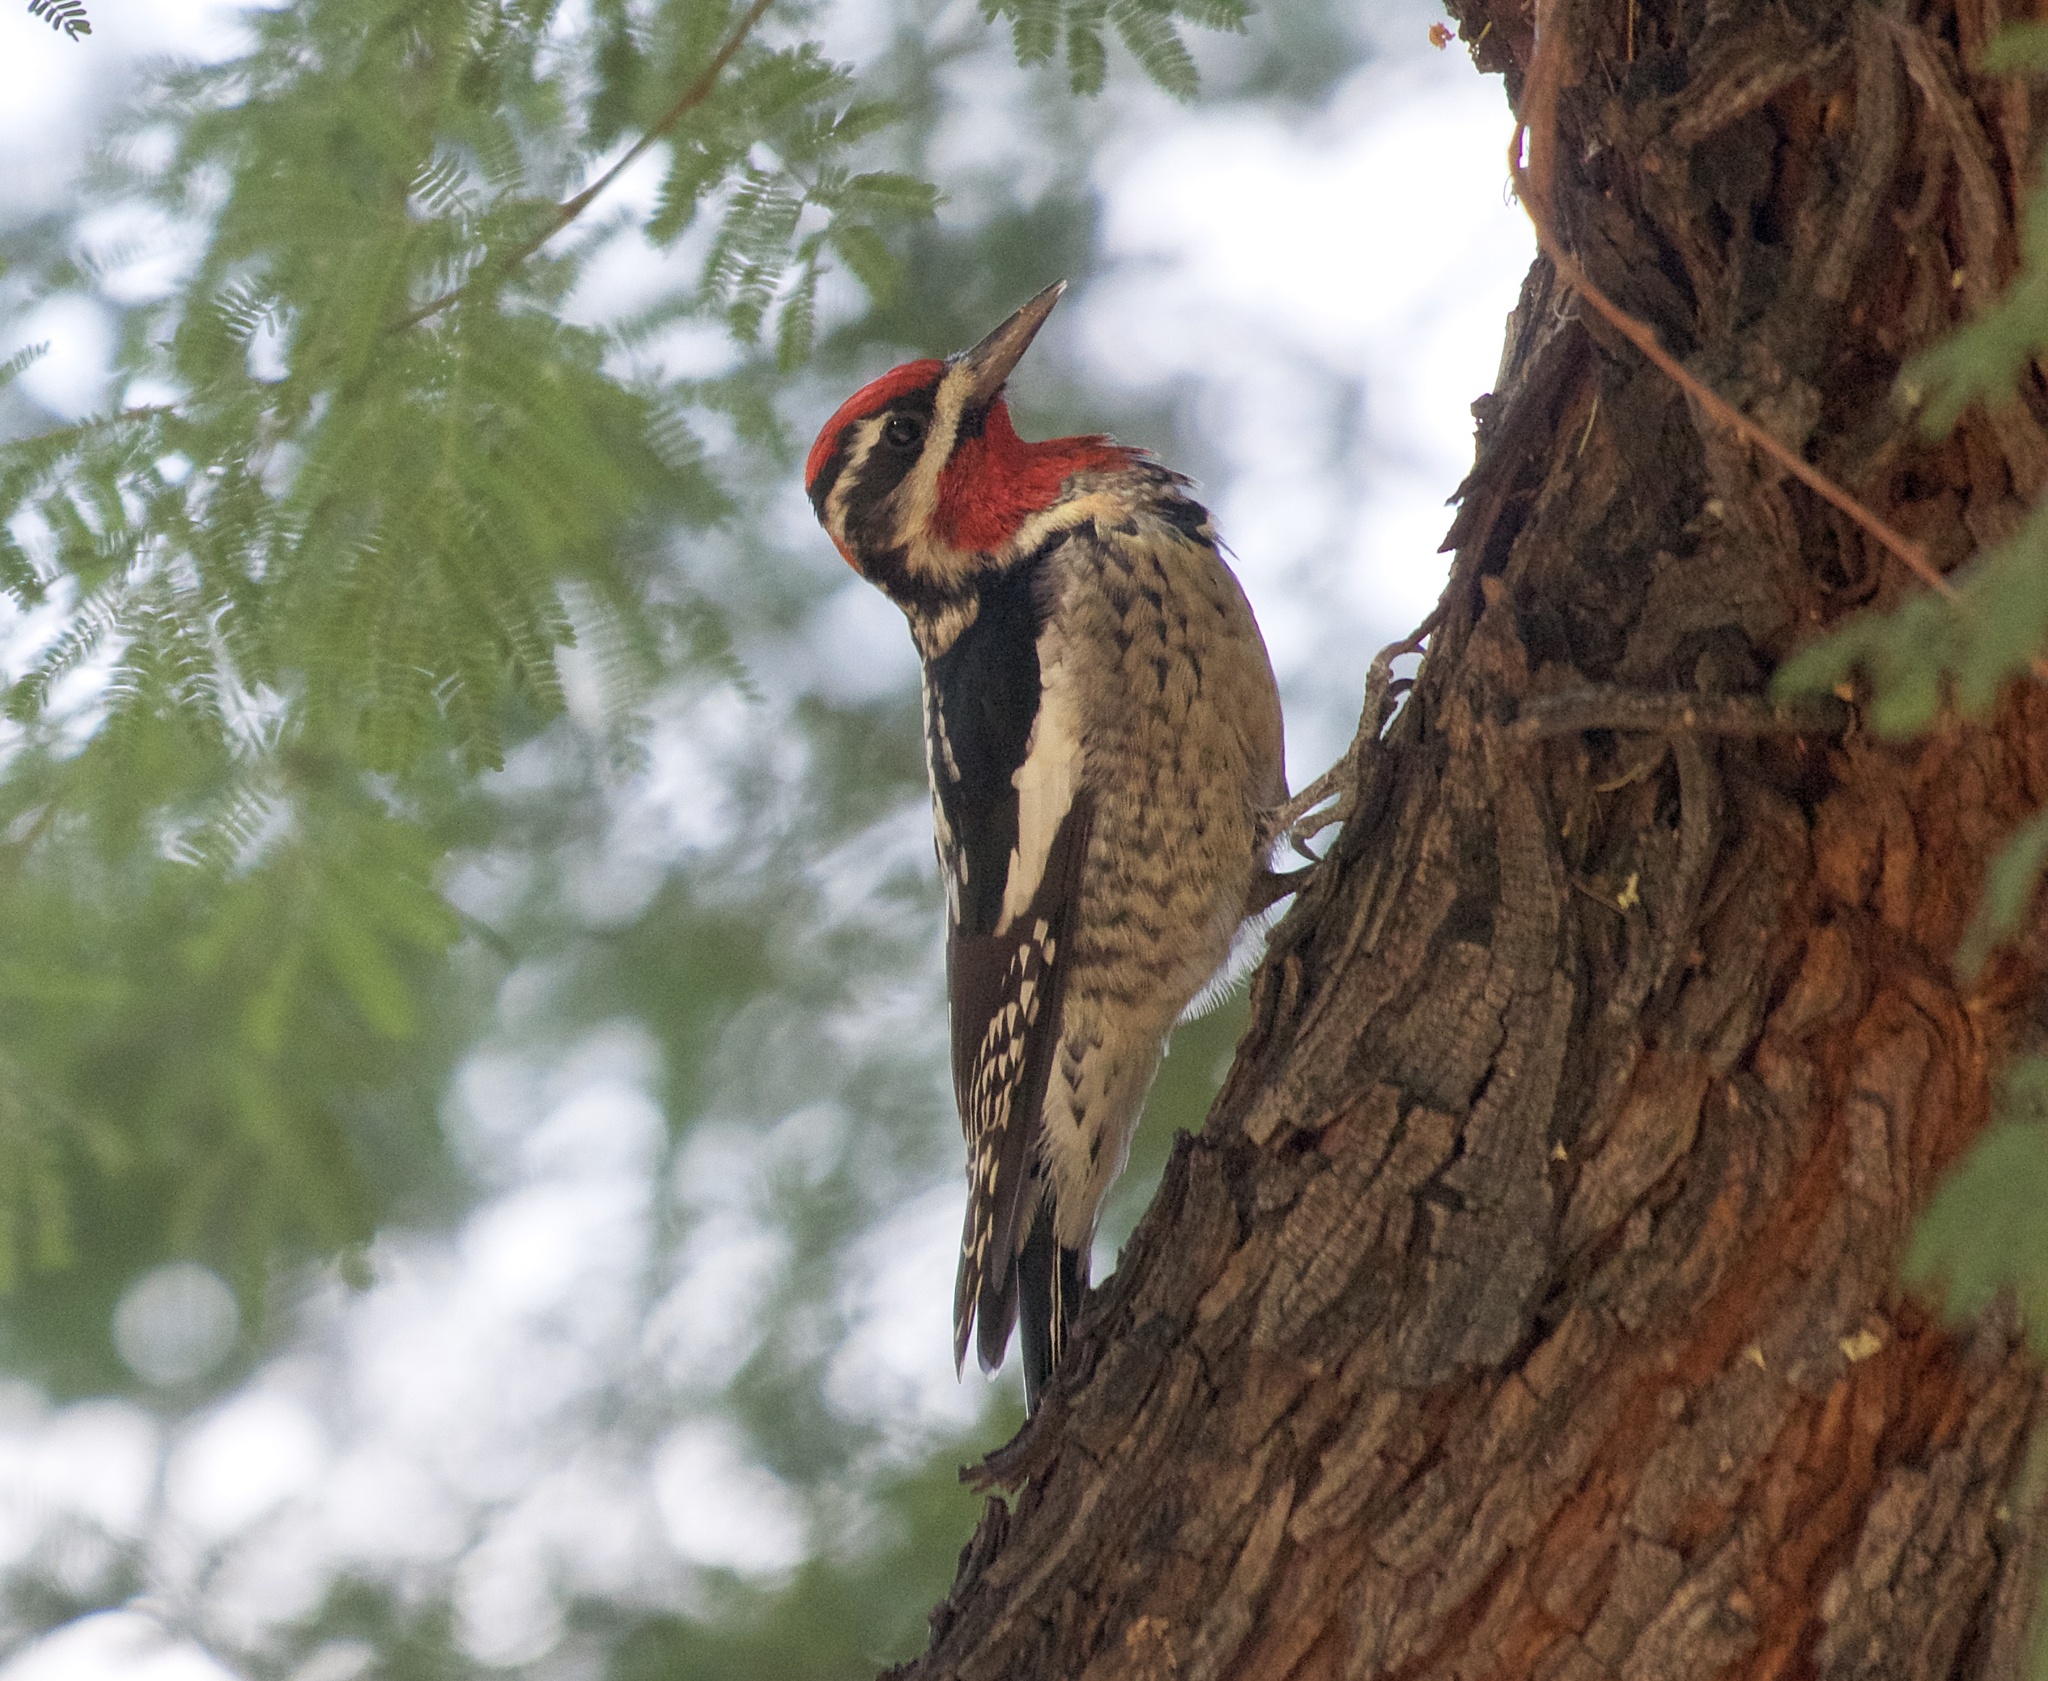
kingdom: Animalia
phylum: Chordata
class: Aves
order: Piciformes
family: Picidae
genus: Sphyrapicus
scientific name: Sphyrapicus nuchalis
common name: Red-naped sapsucker
